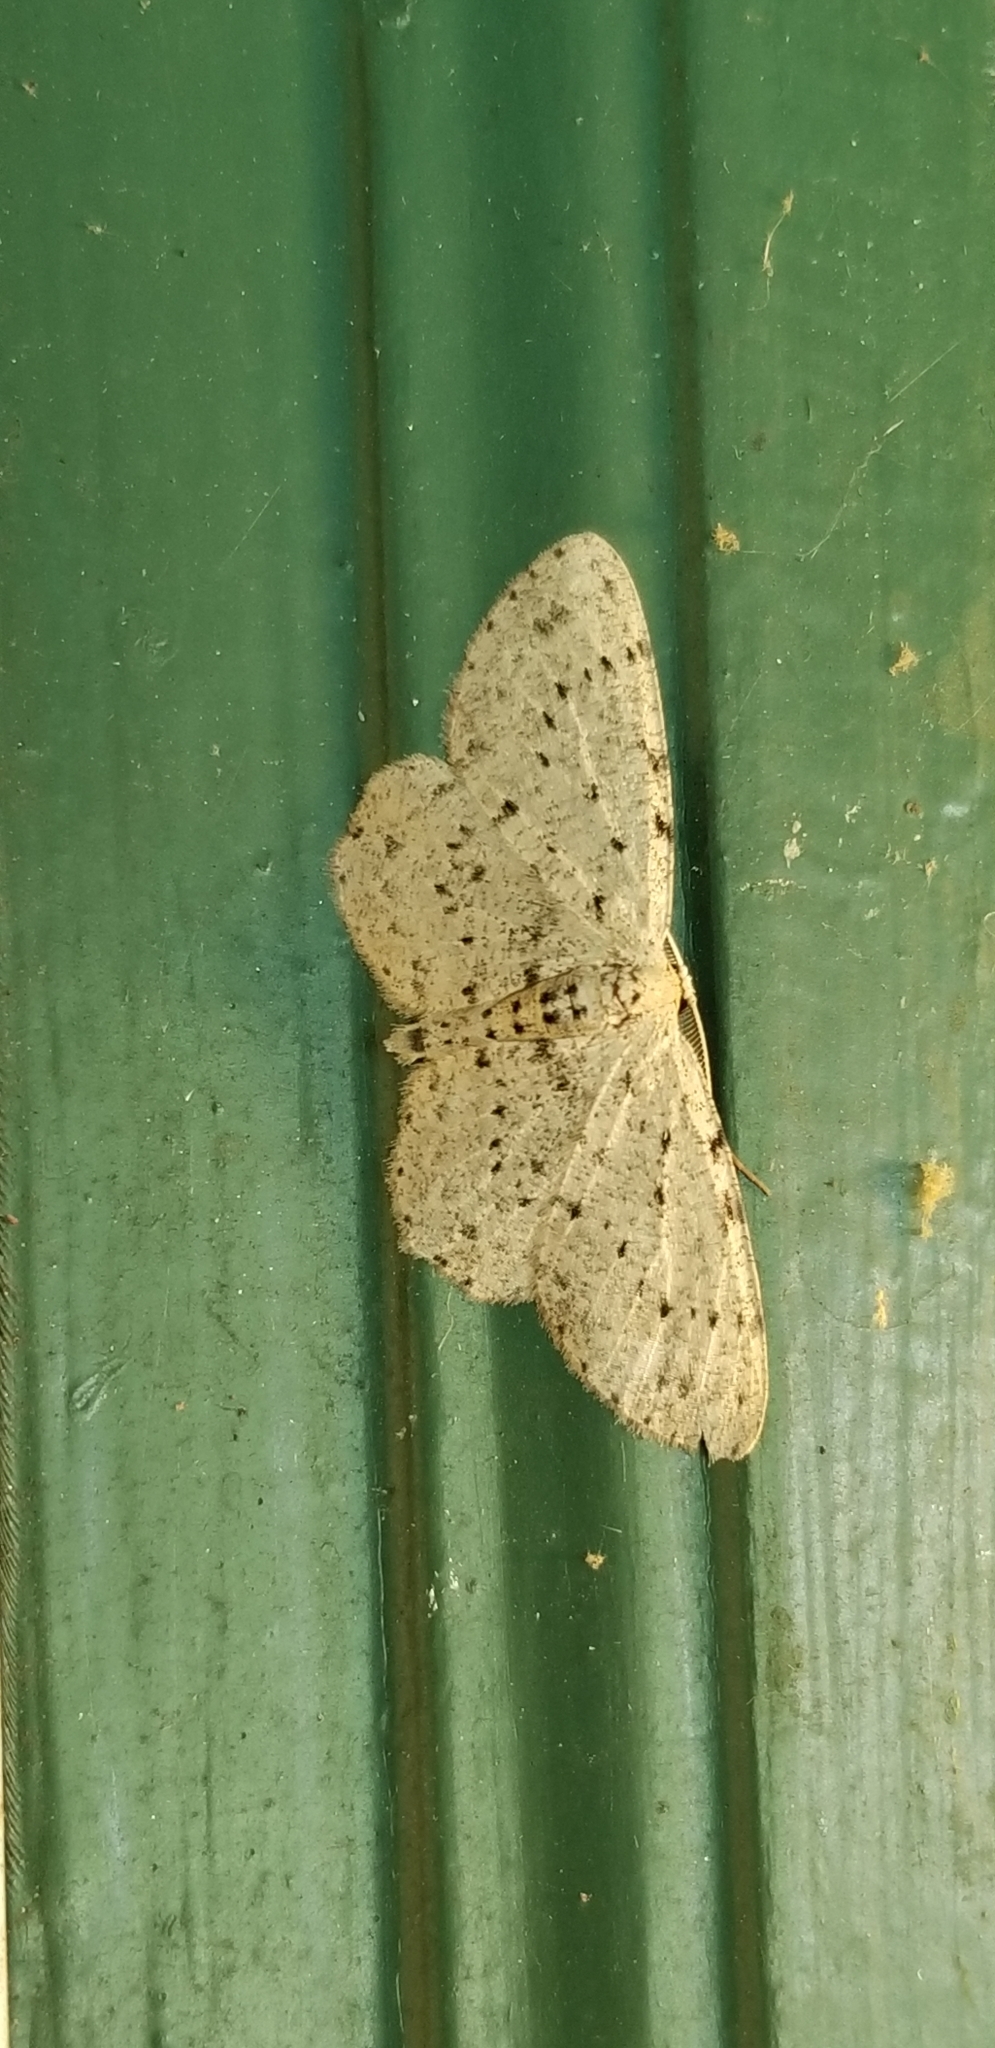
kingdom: Animalia
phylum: Arthropoda
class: Insecta
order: Lepidoptera
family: Geometridae
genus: Glena
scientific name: Glena cribrataria
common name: Dotted gray
